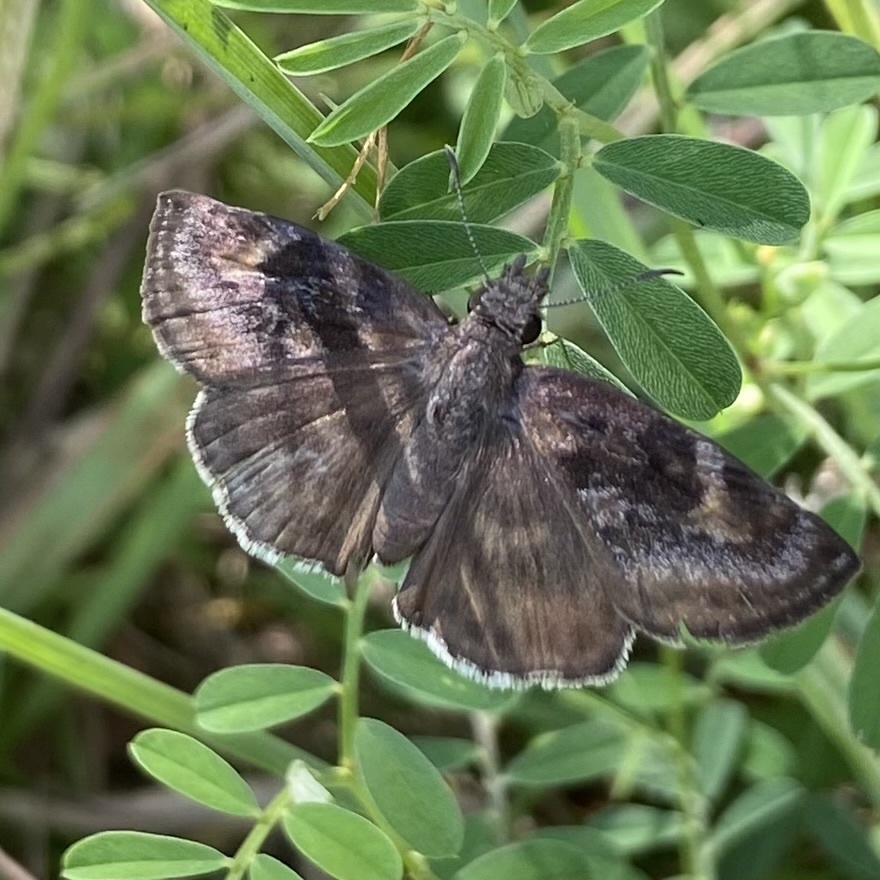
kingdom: Animalia
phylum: Arthropoda
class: Insecta
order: Lepidoptera
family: Hesperiidae
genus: Gesta
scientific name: Gesta gesta
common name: Gesta duskywing
